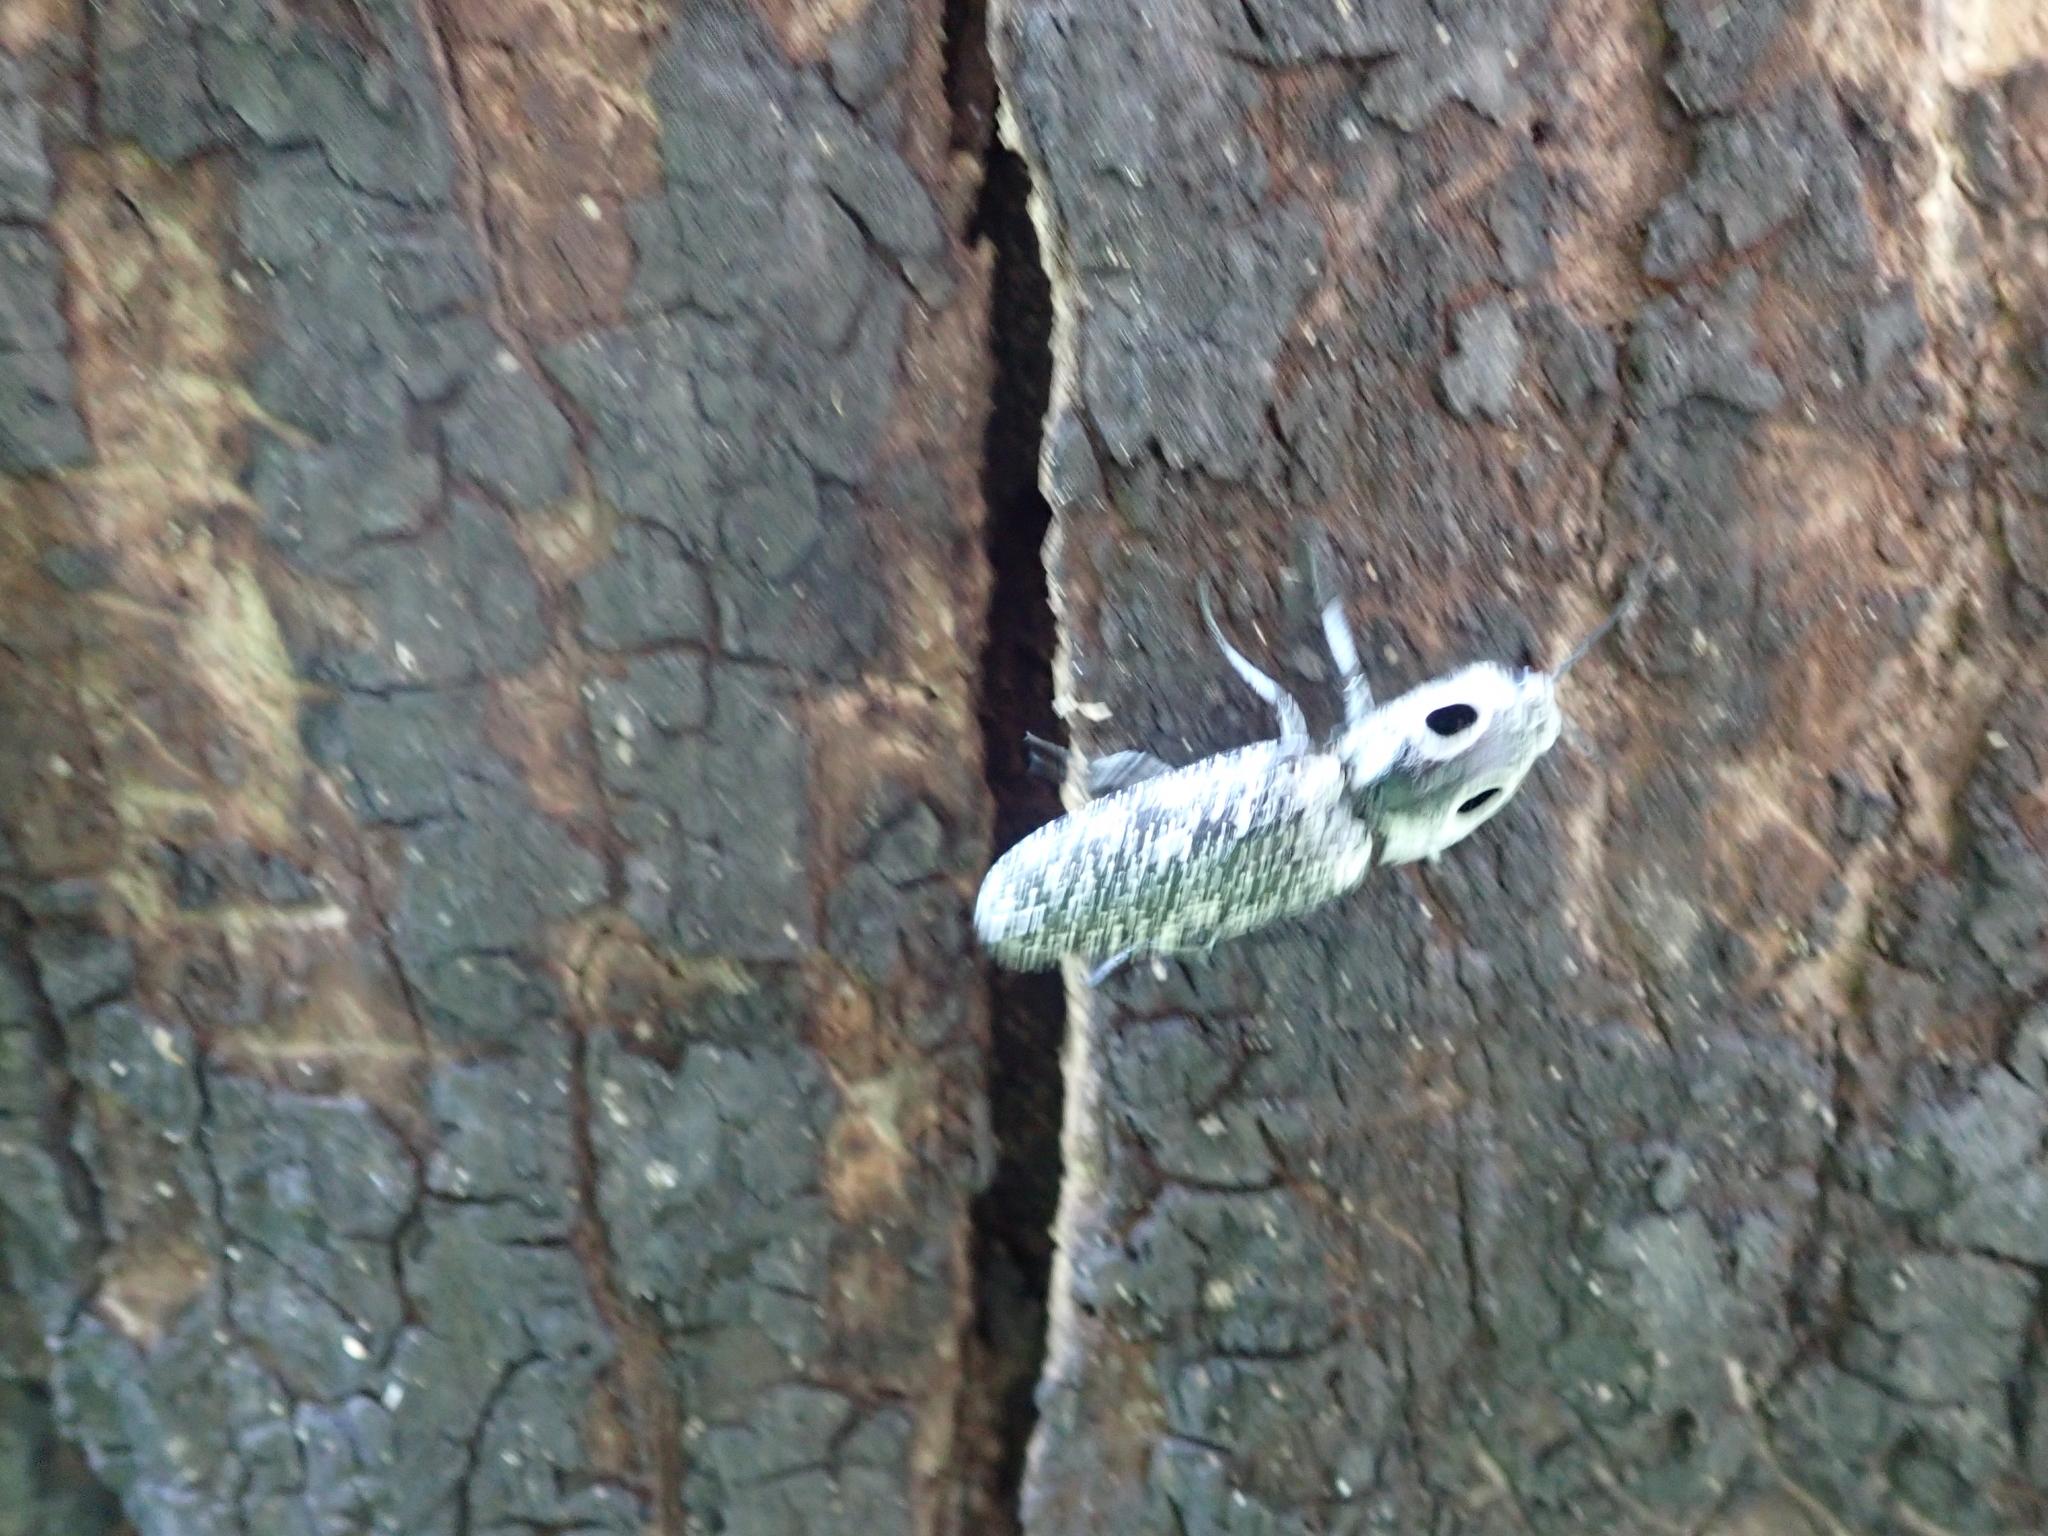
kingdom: Animalia
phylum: Arthropoda
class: Insecta
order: Coleoptera
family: Elateridae
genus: Alaus
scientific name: Alaus oculatus
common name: Eastern eyed click beetle
